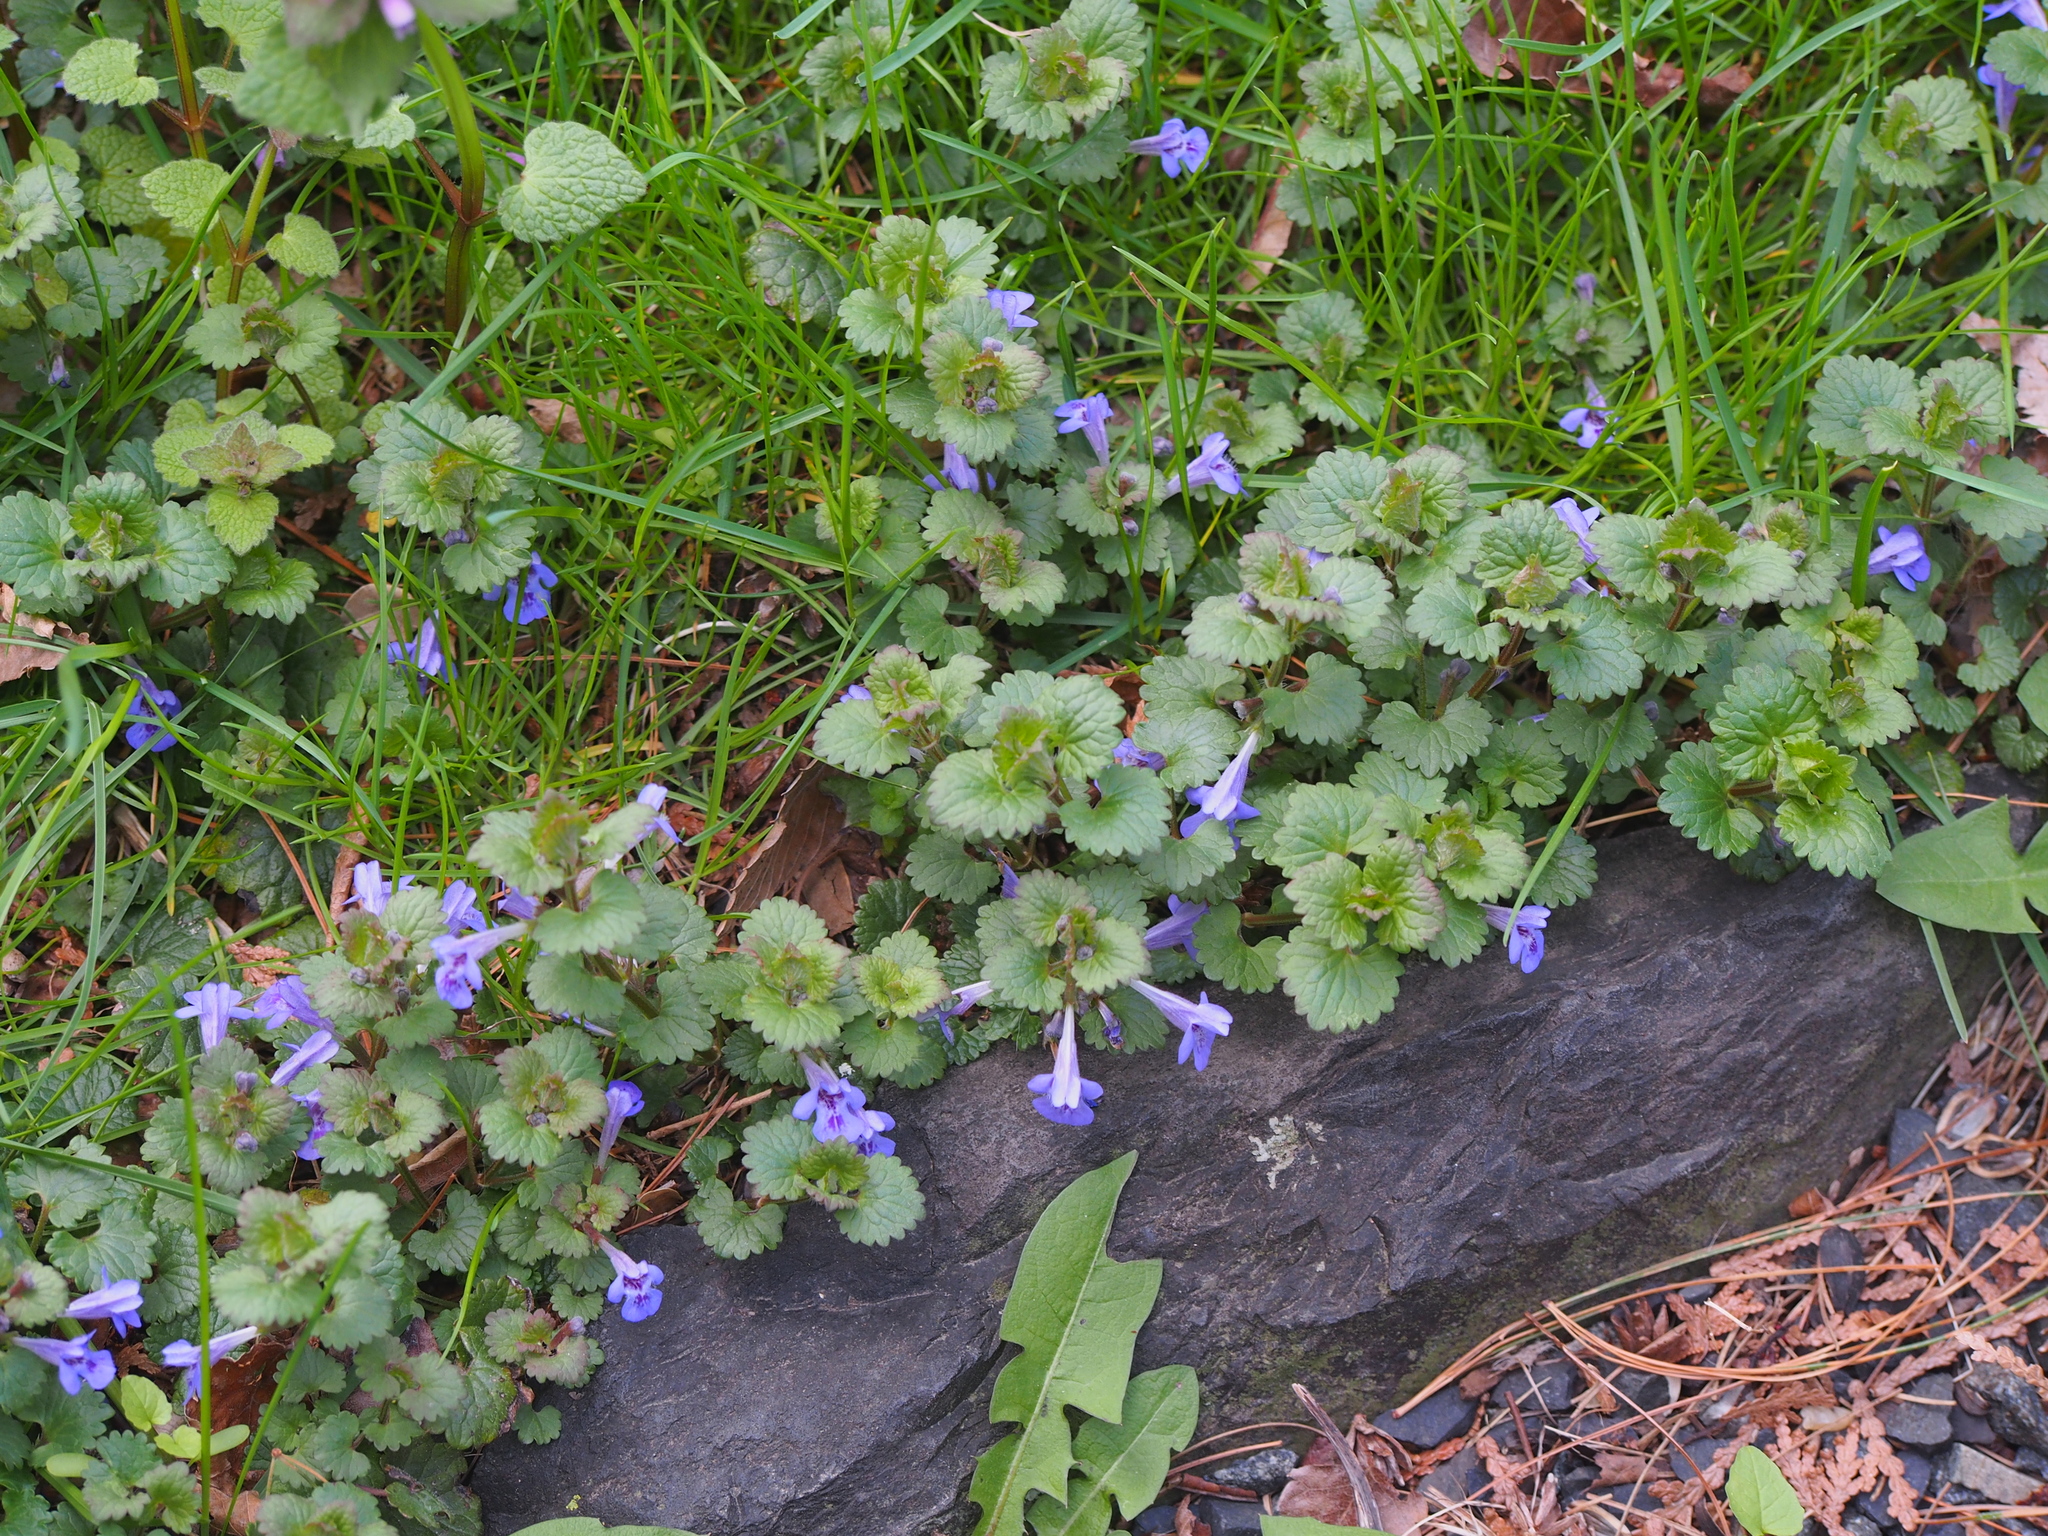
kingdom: Plantae
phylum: Tracheophyta
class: Magnoliopsida
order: Lamiales
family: Lamiaceae
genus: Glechoma
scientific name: Glechoma hederacea
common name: Ground ivy
